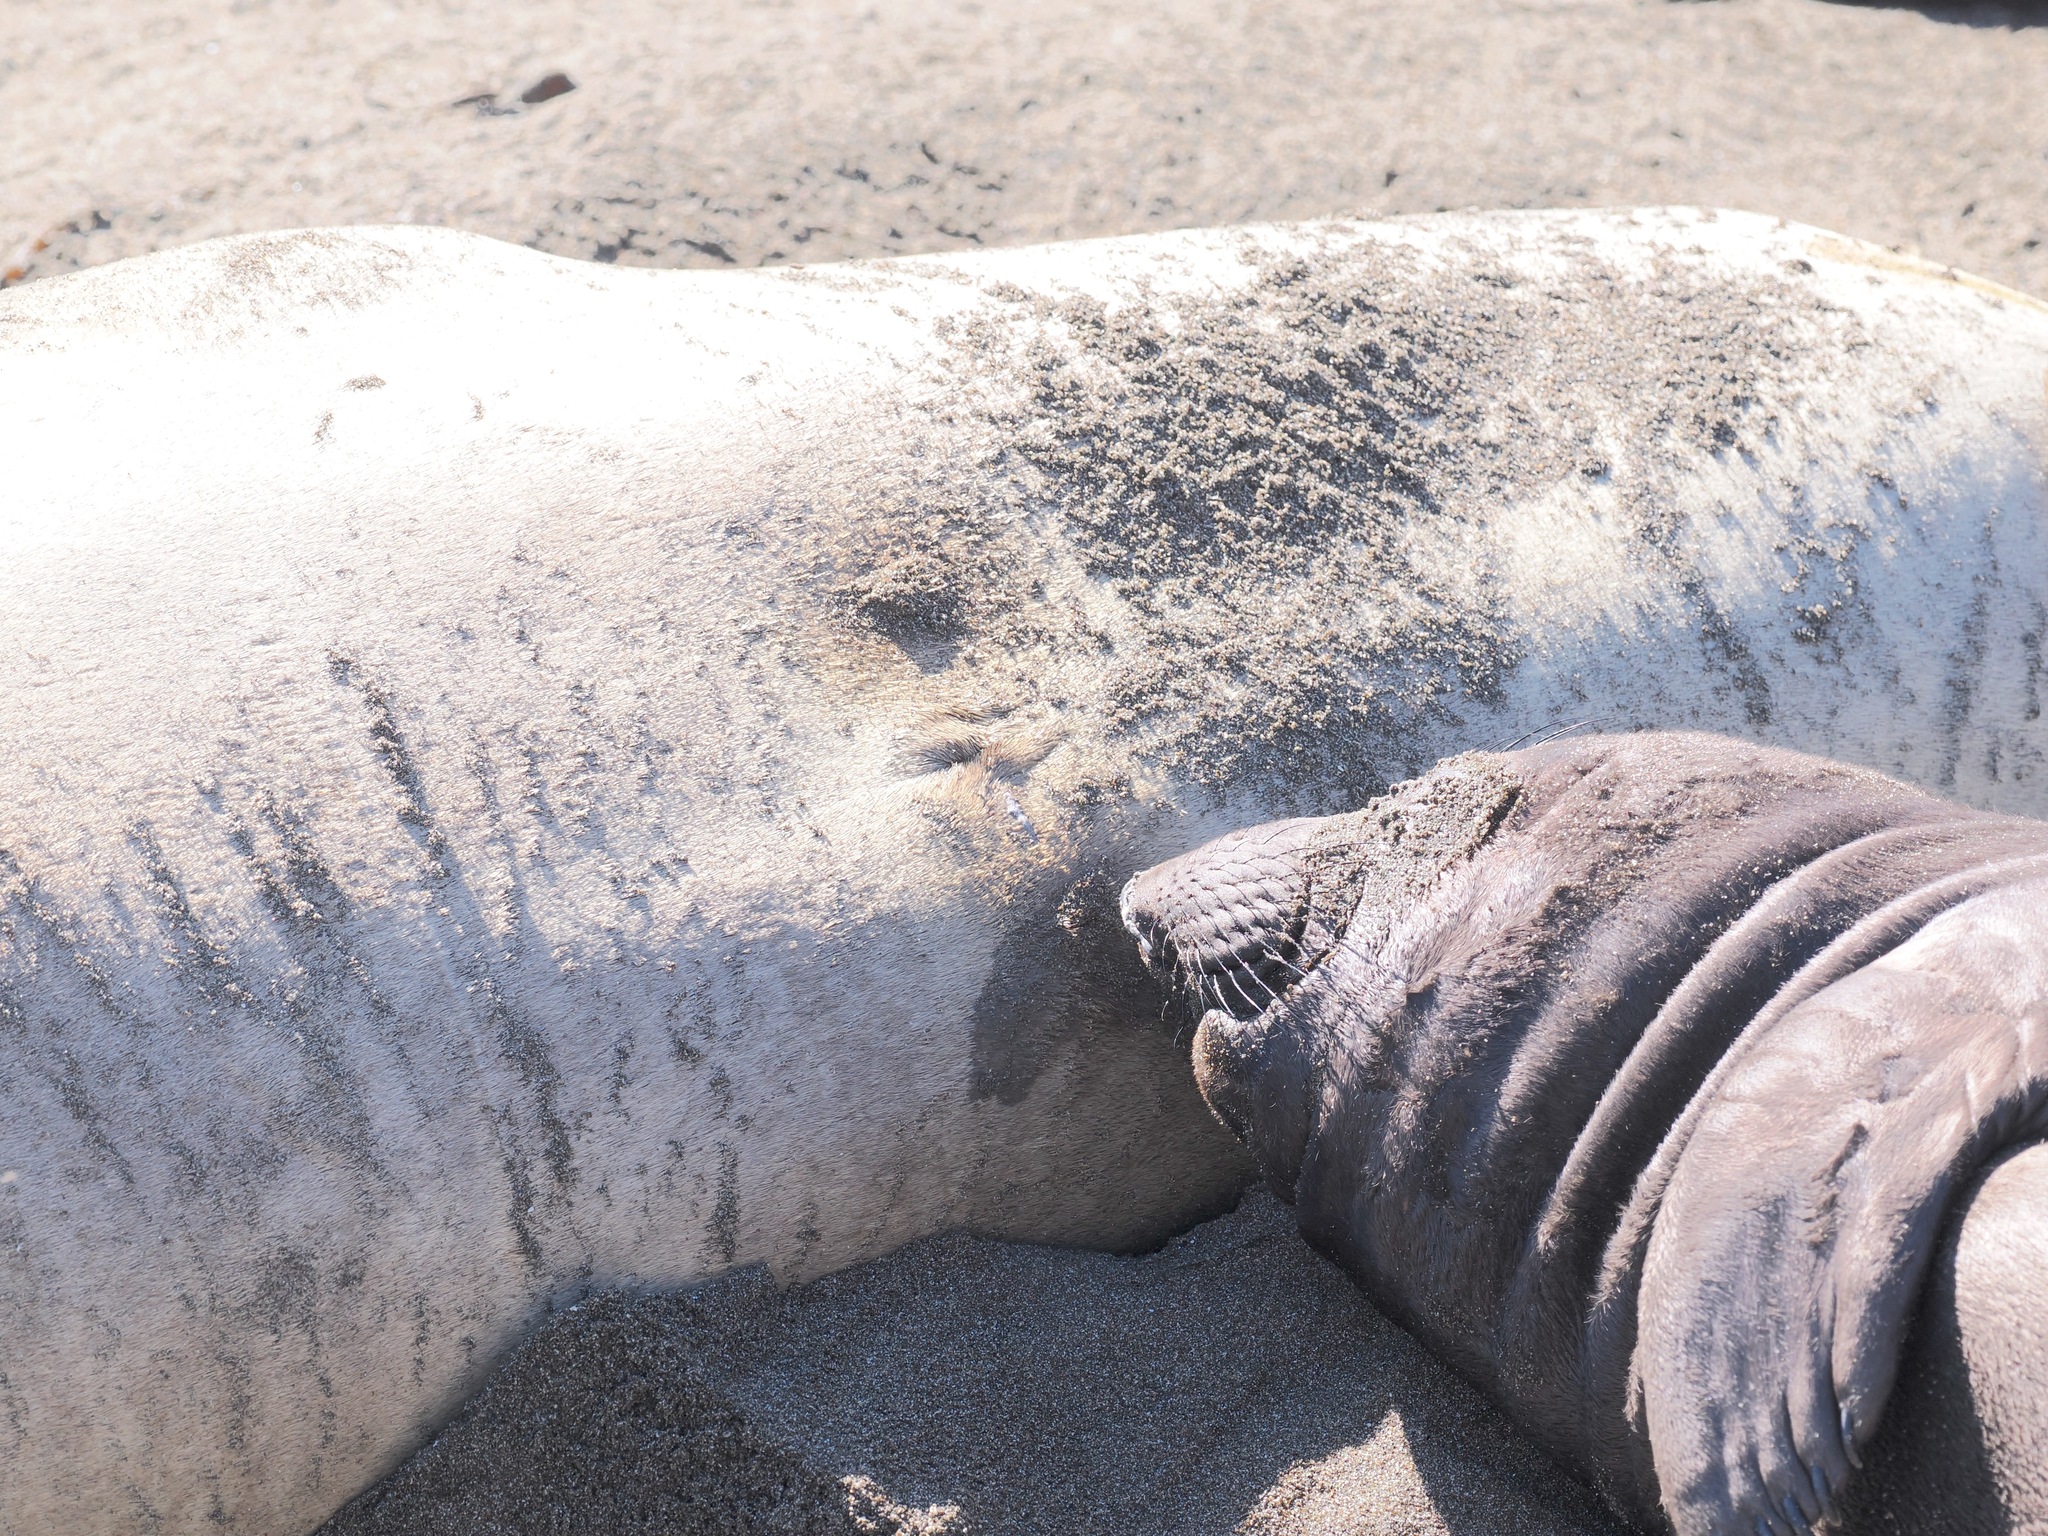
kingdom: Animalia
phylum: Chordata
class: Mammalia
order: Carnivora
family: Phocidae
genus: Mirounga
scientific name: Mirounga angustirostris
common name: Northern elephant seal
